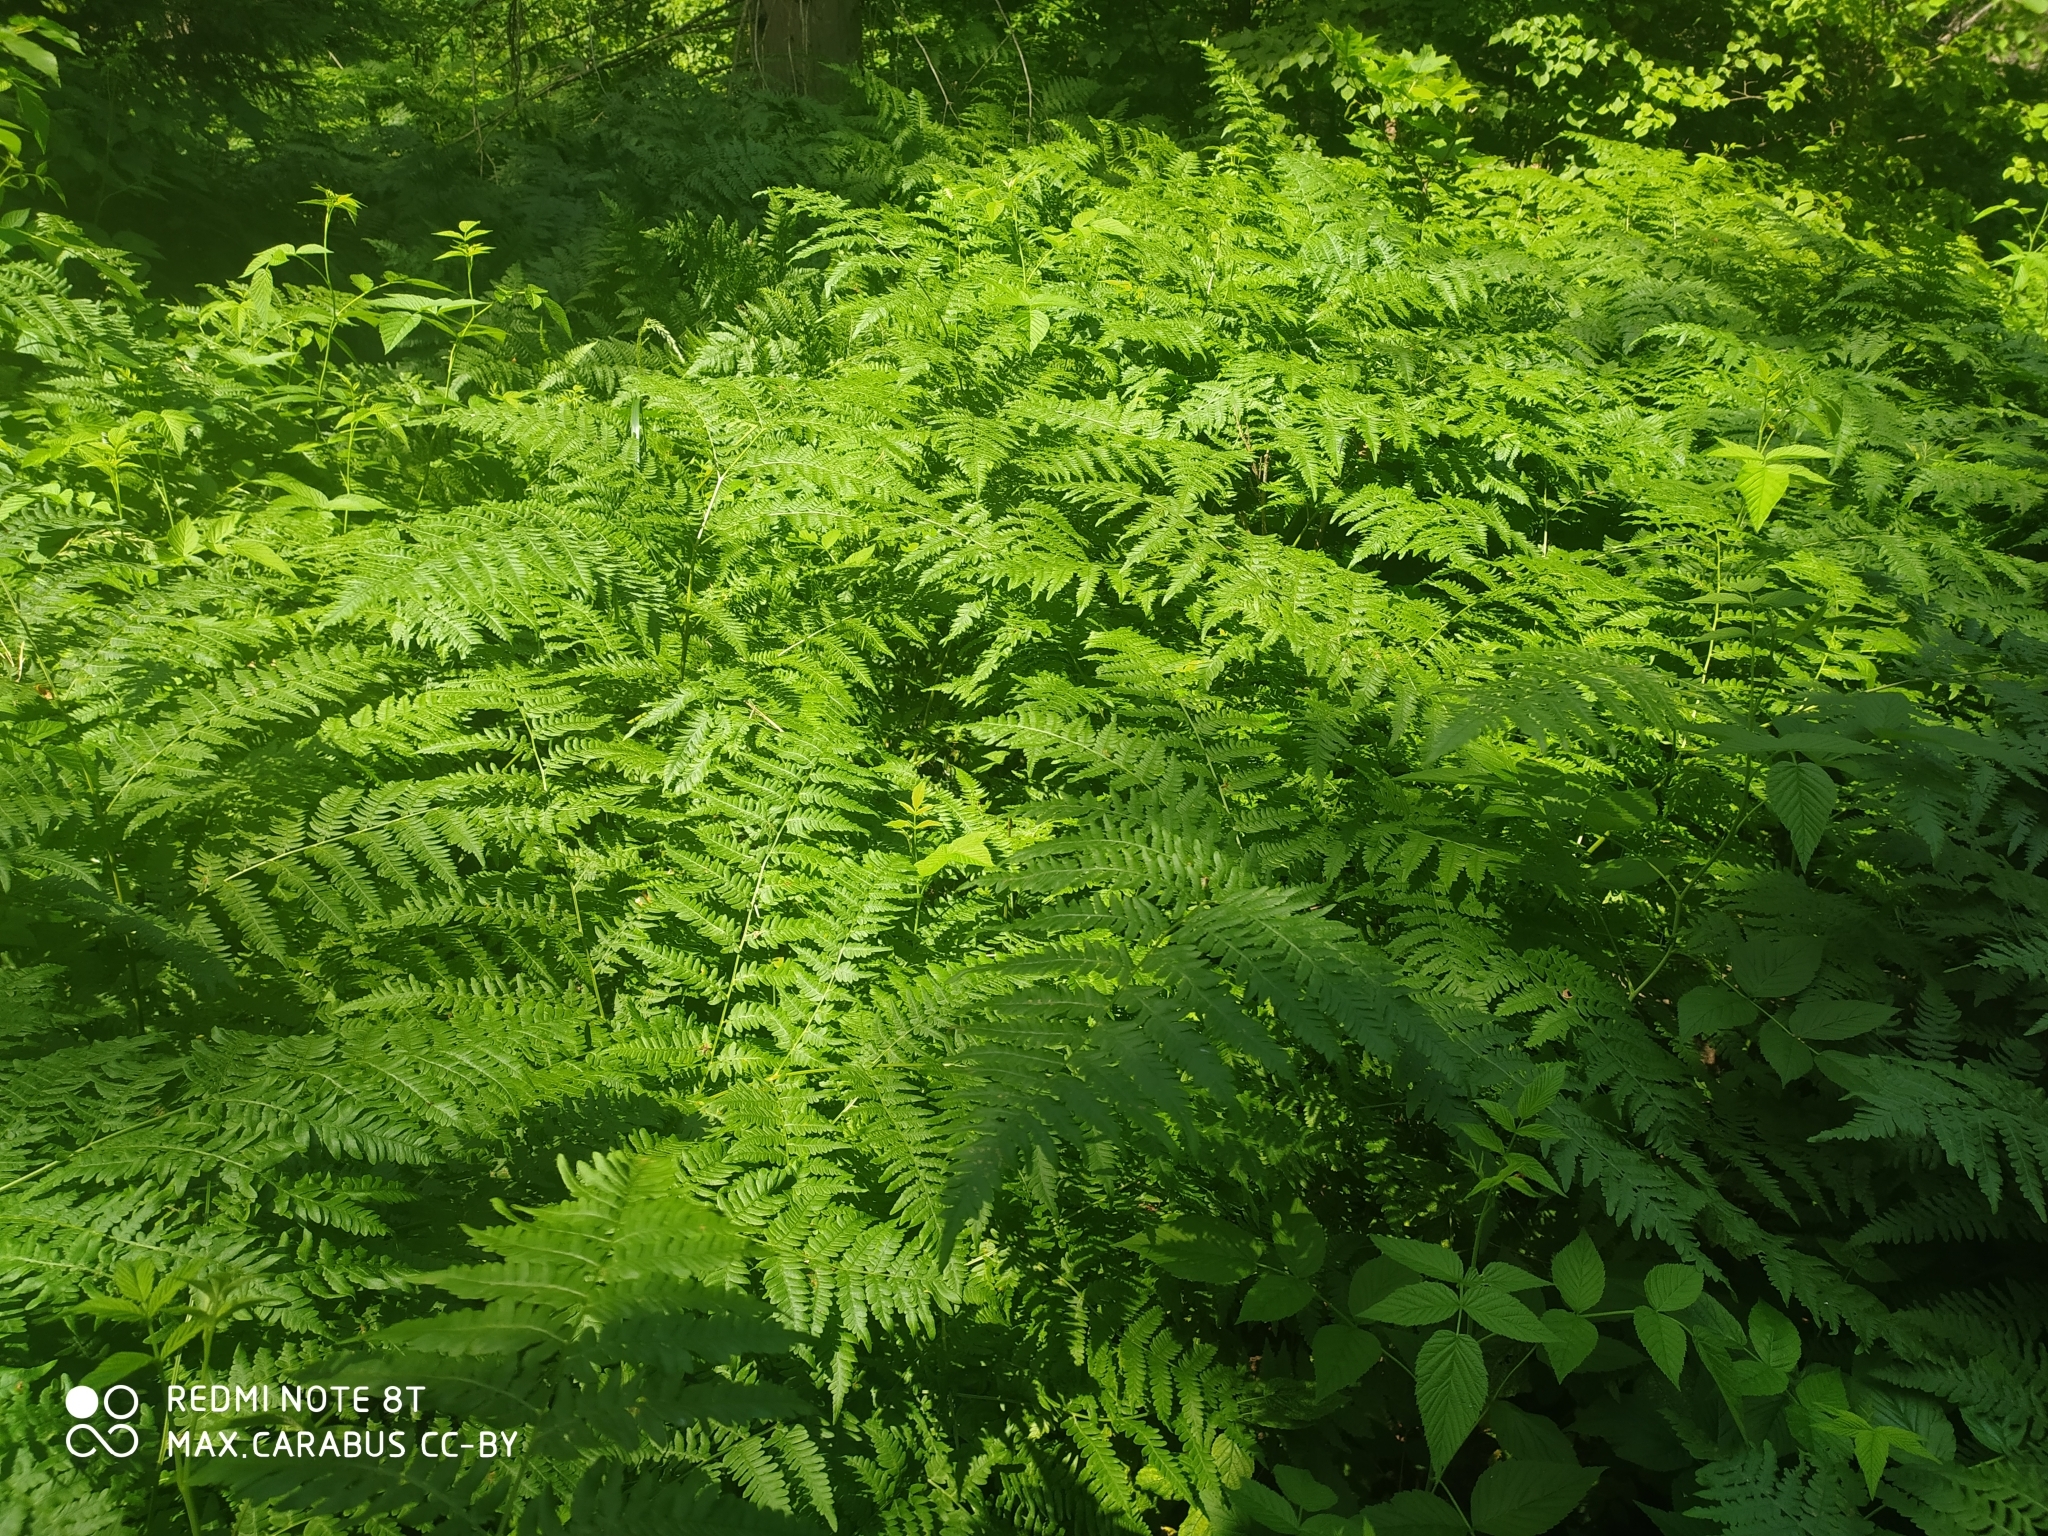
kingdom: Plantae
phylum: Tracheophyta
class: Polypodiopsida
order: Polypodiales
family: Dennstaedtiaceae
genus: Pteridium
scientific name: Pteridium aquilinum
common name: Bracken
